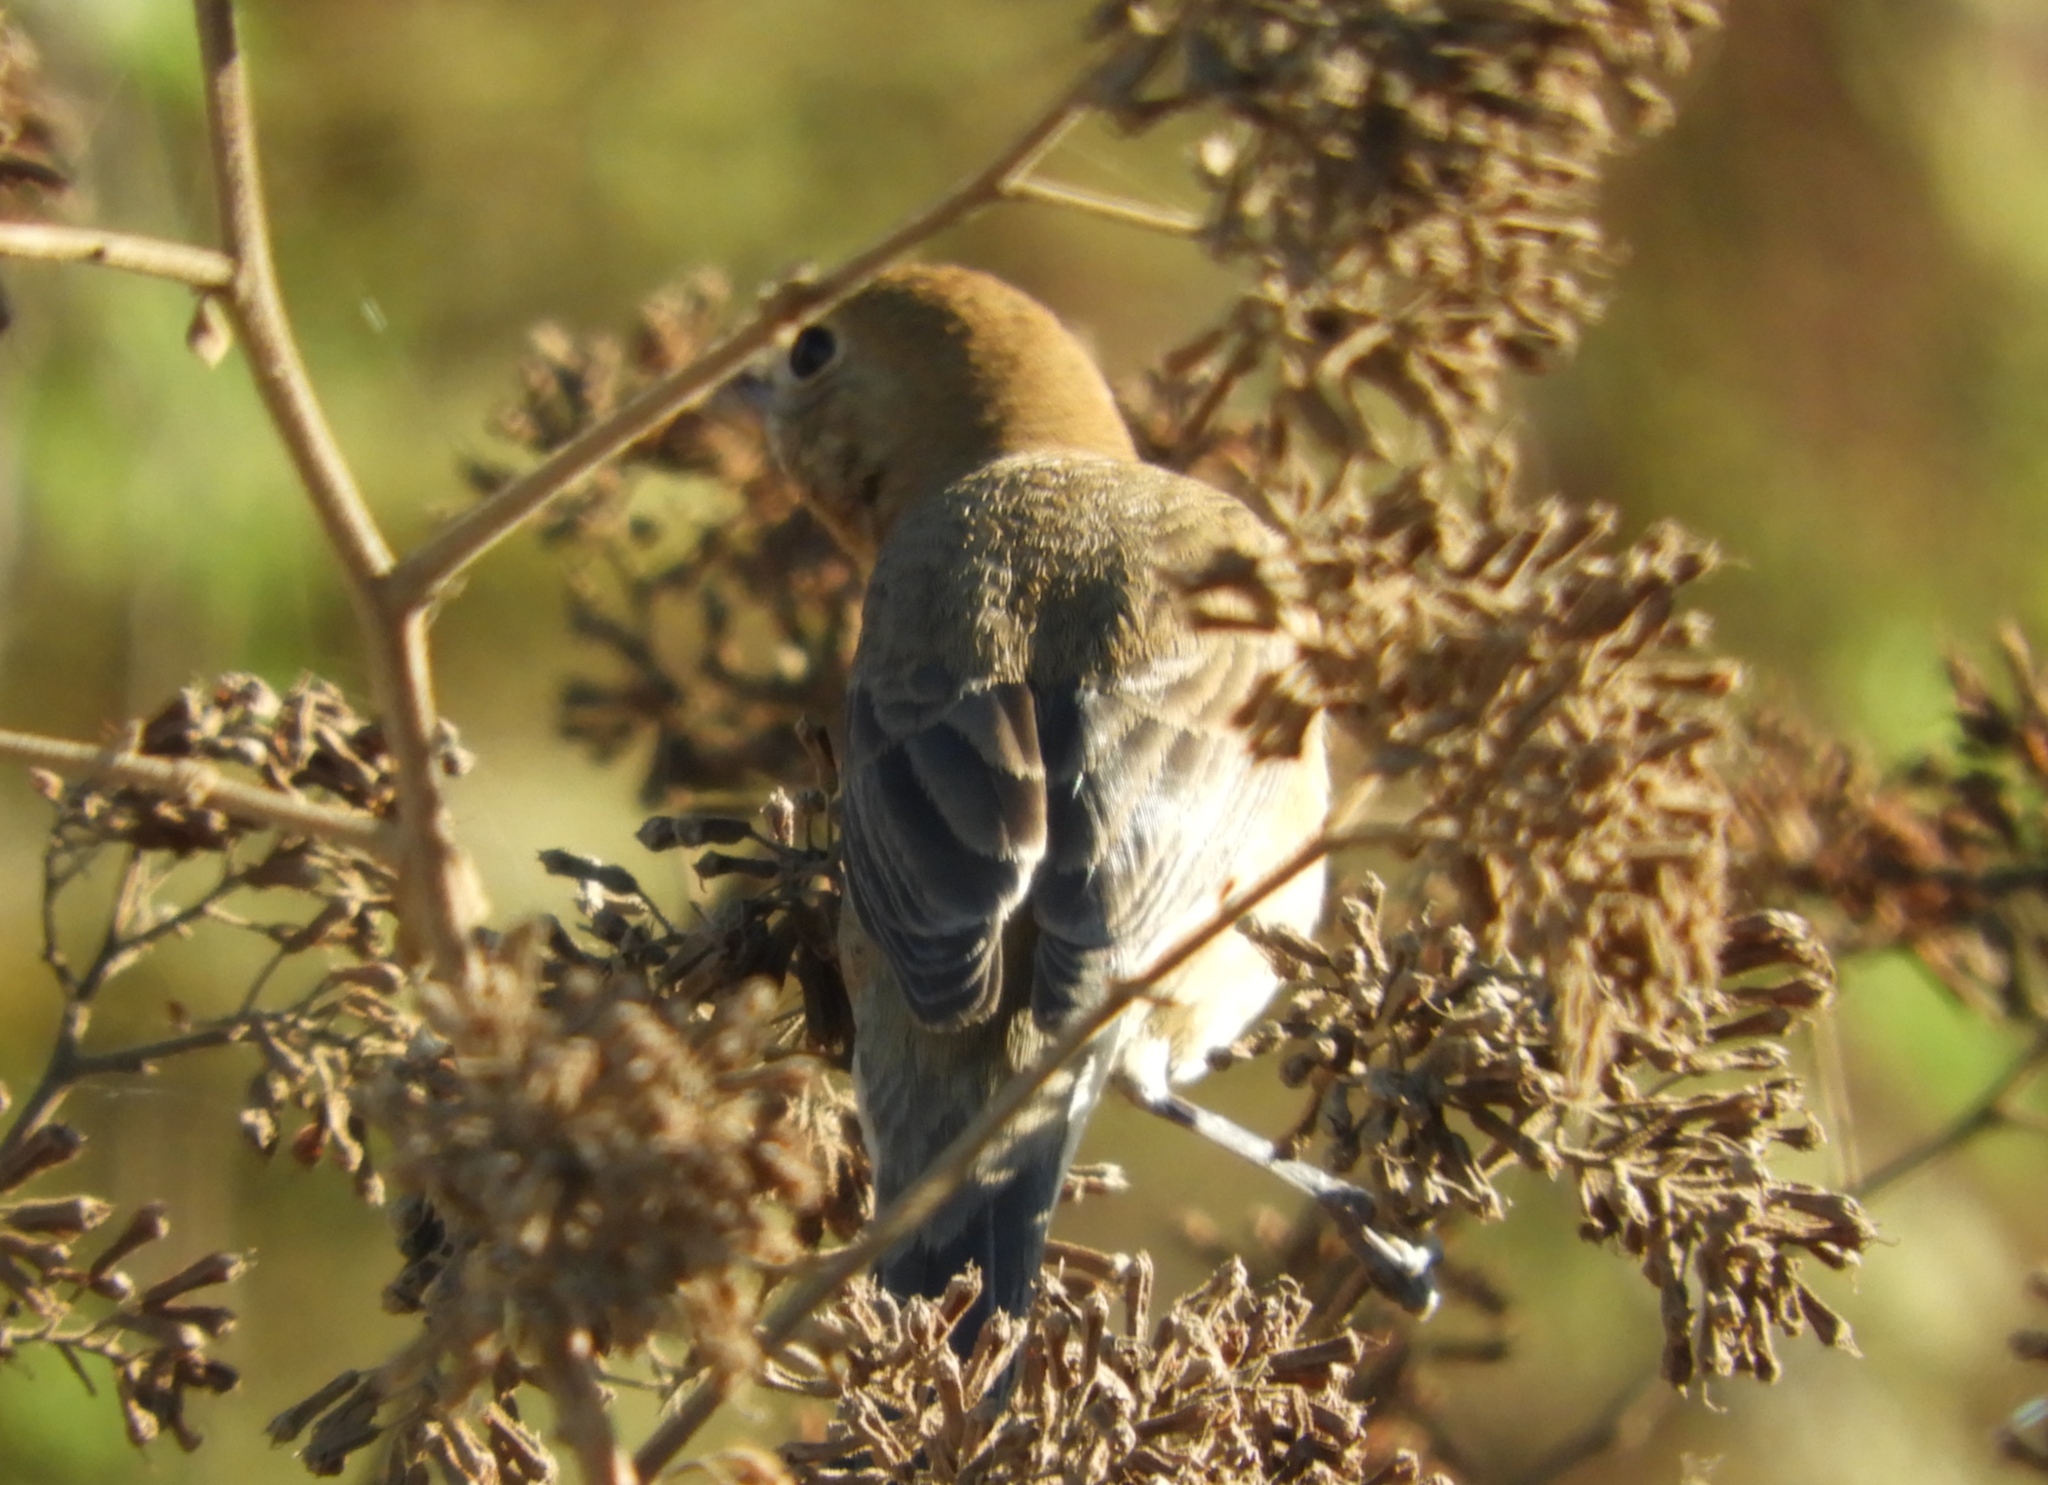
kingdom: Animalia
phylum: Chordata
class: Aves
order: Passeriformes
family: Cardinalidae
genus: Passerina
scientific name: Passerina
